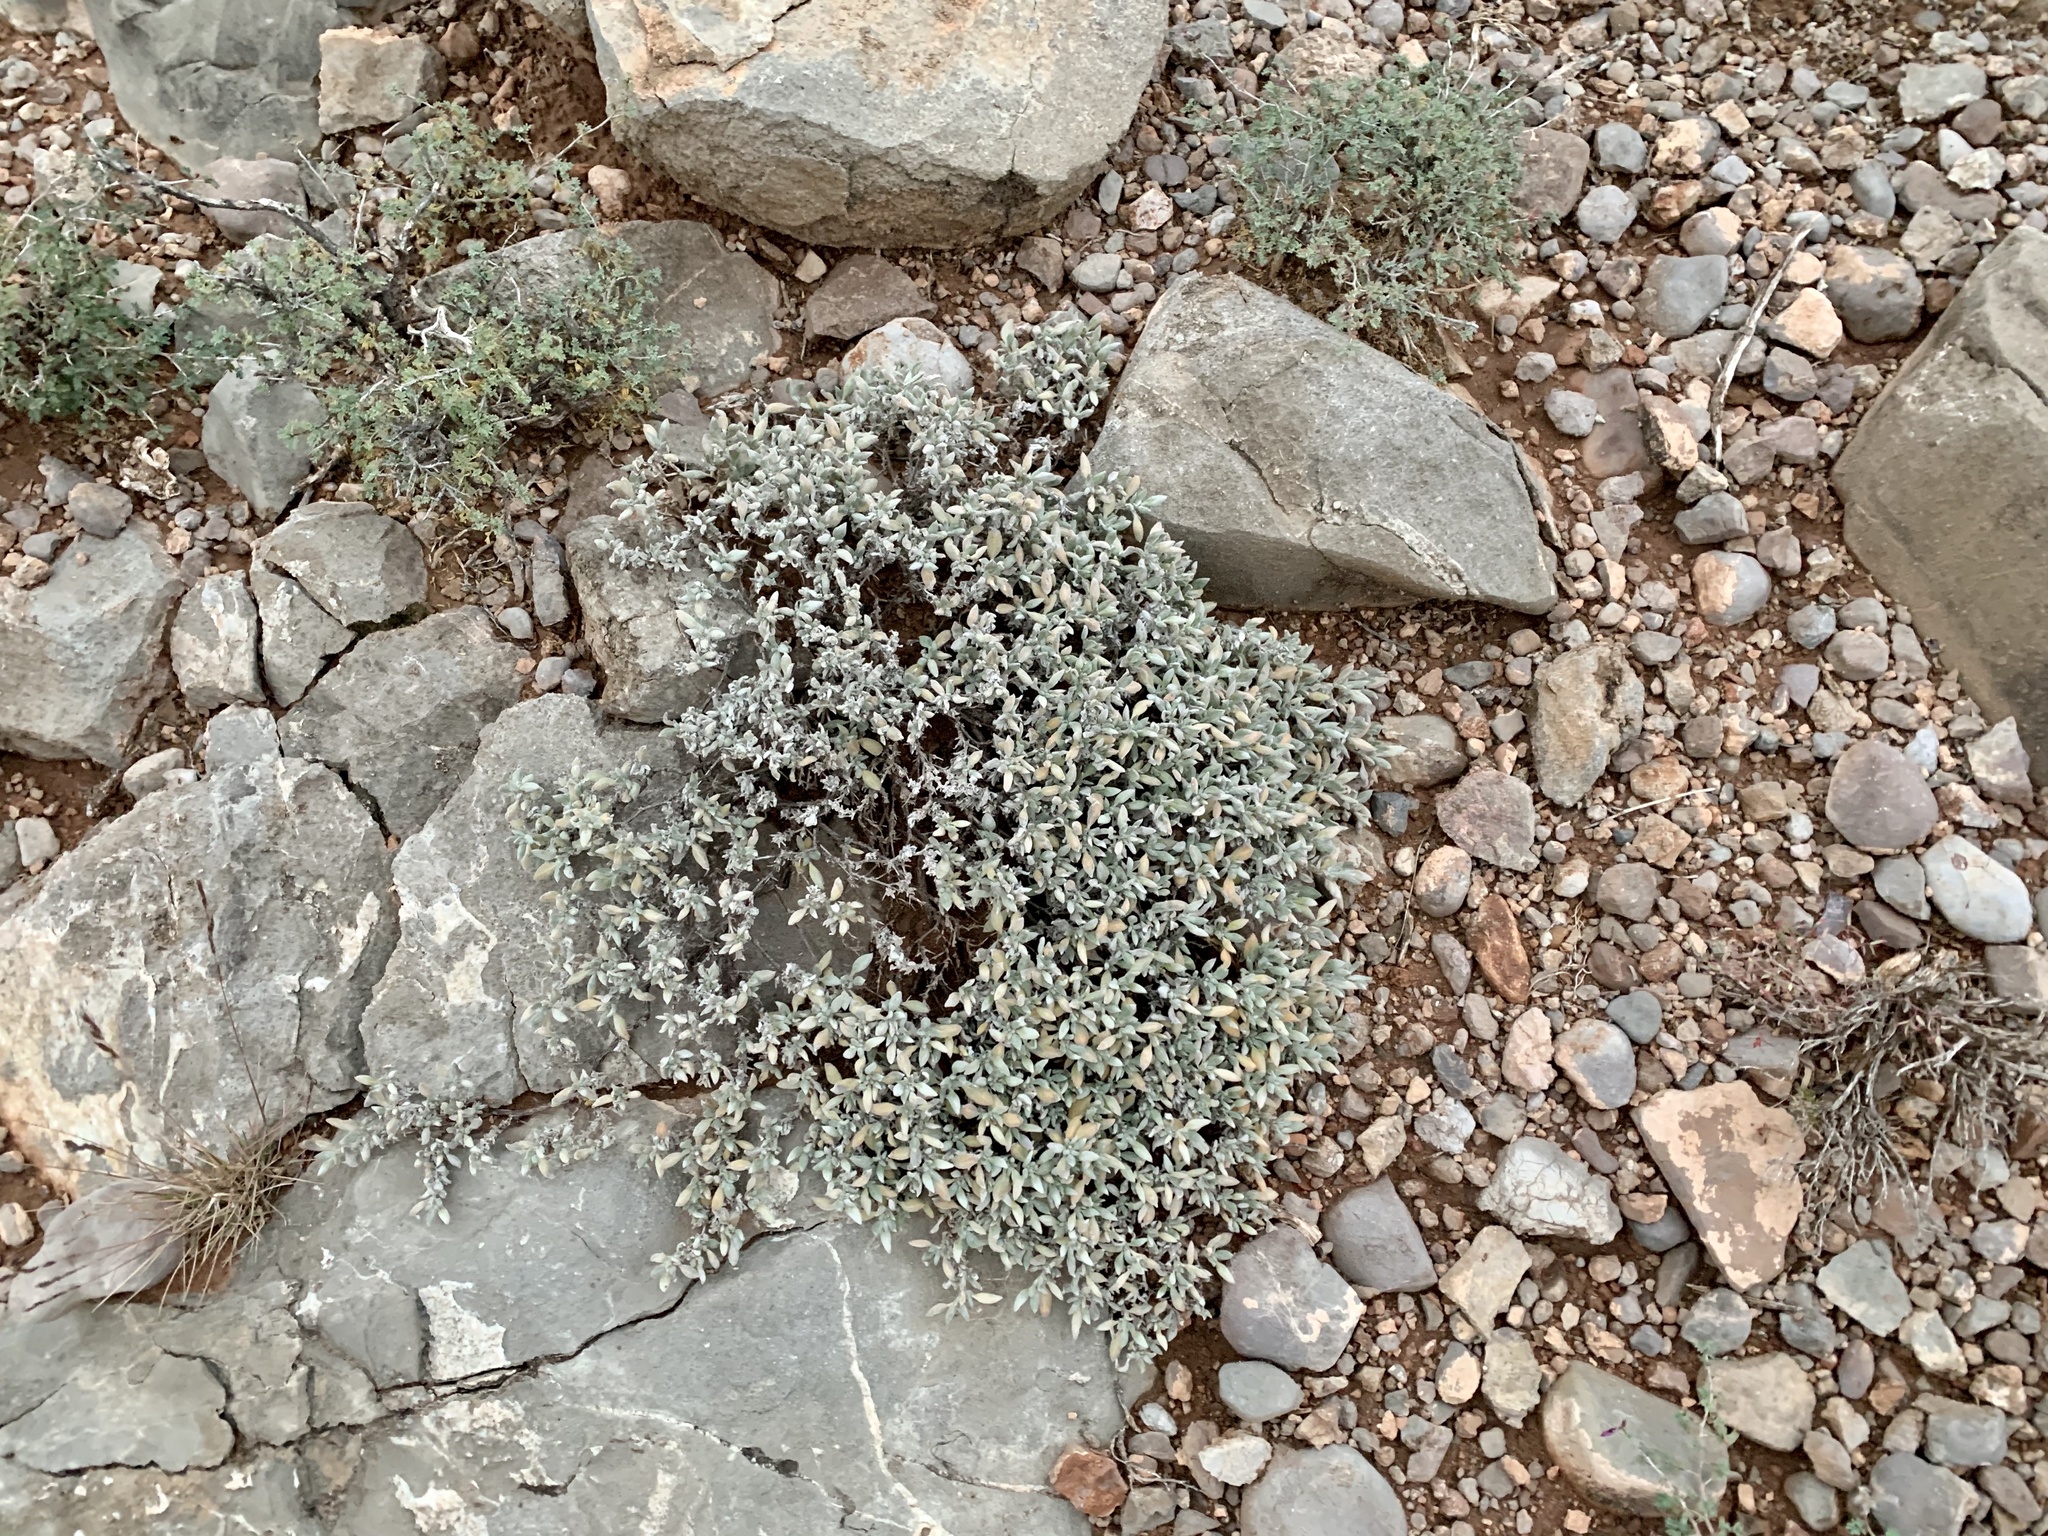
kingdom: Plantae
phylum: Tracheophyta
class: Magnoliopsida
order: Boraginales
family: Ehretiaceae
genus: Tiquilia
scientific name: Tiquilia canescens
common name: Hairy tiquilia
